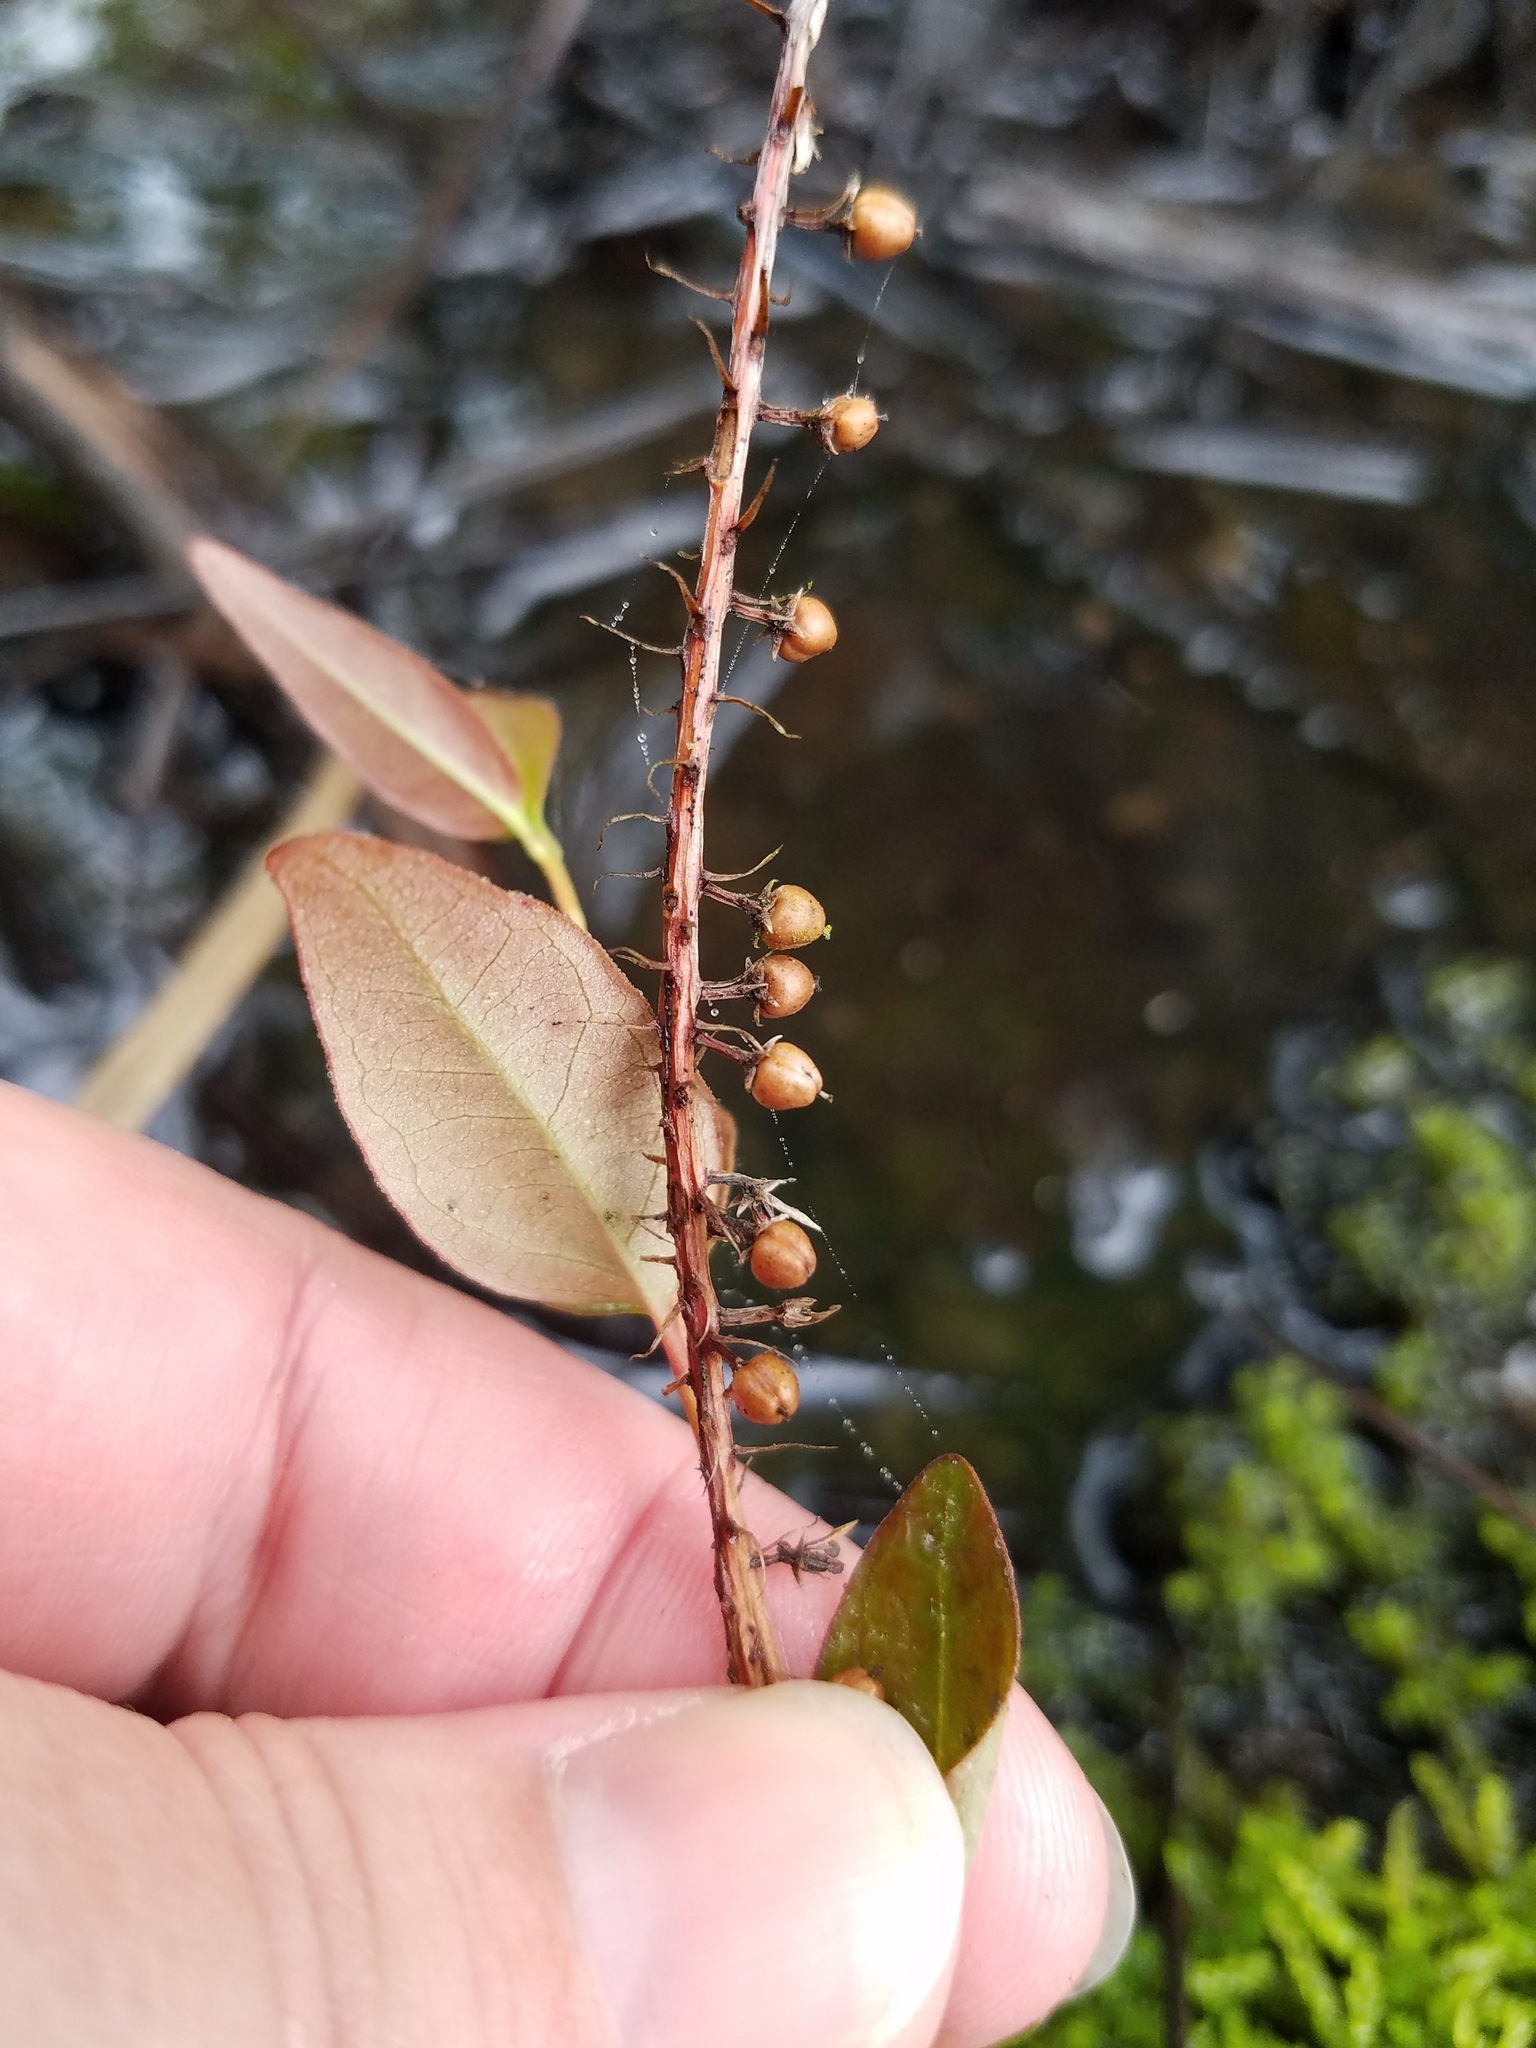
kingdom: Plantae
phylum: Tracheophyta
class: Magnoliopsida
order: Ericales
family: Cyrillaceae
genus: Cyrilla
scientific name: Cyrilla racemiflora
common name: Black titi
